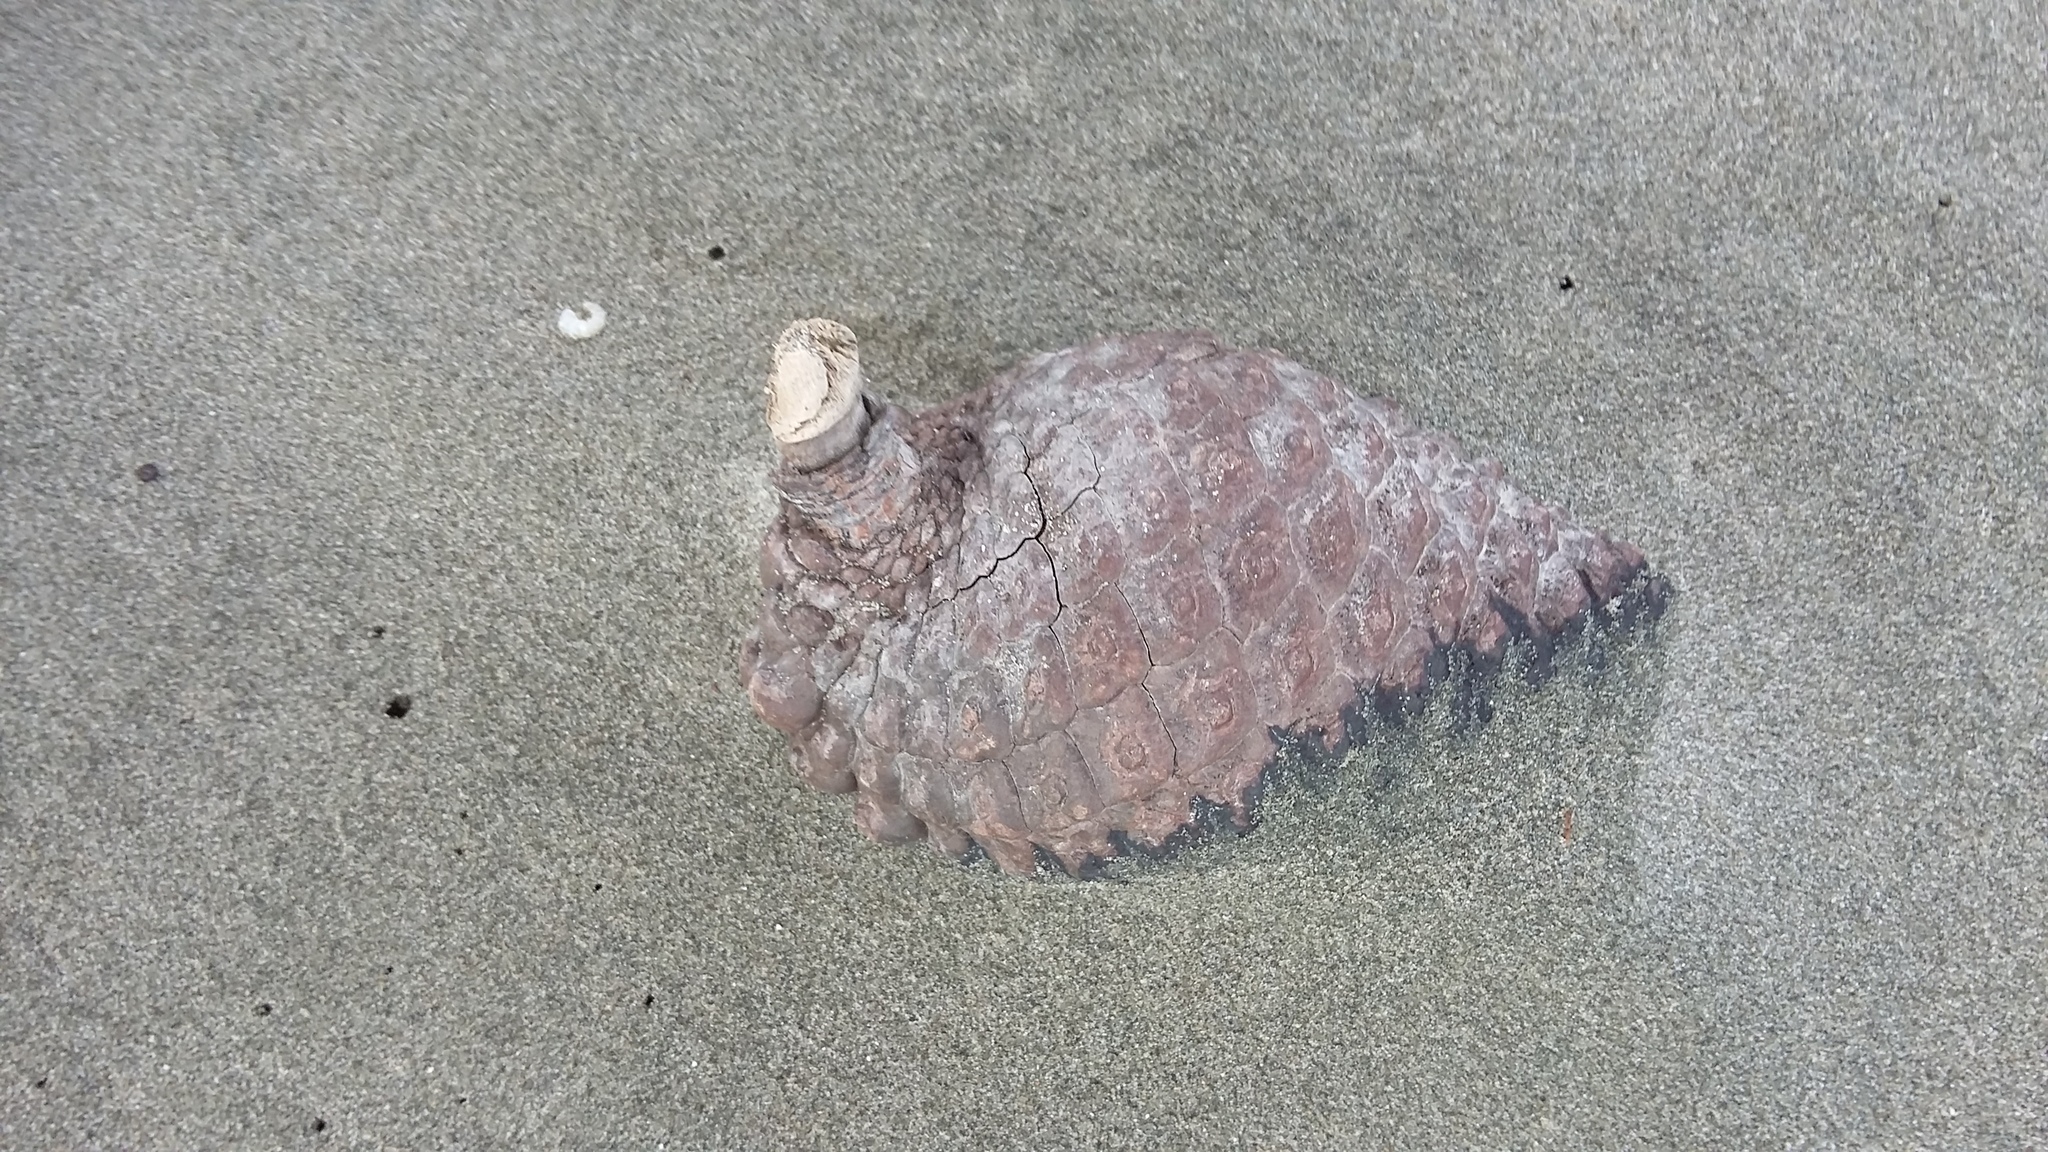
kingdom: Plantae
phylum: Tracheophyta
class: Pinopsida
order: Pinales
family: Pinaceae
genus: Pinus
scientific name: Pinus radiata
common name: Monterey pine
